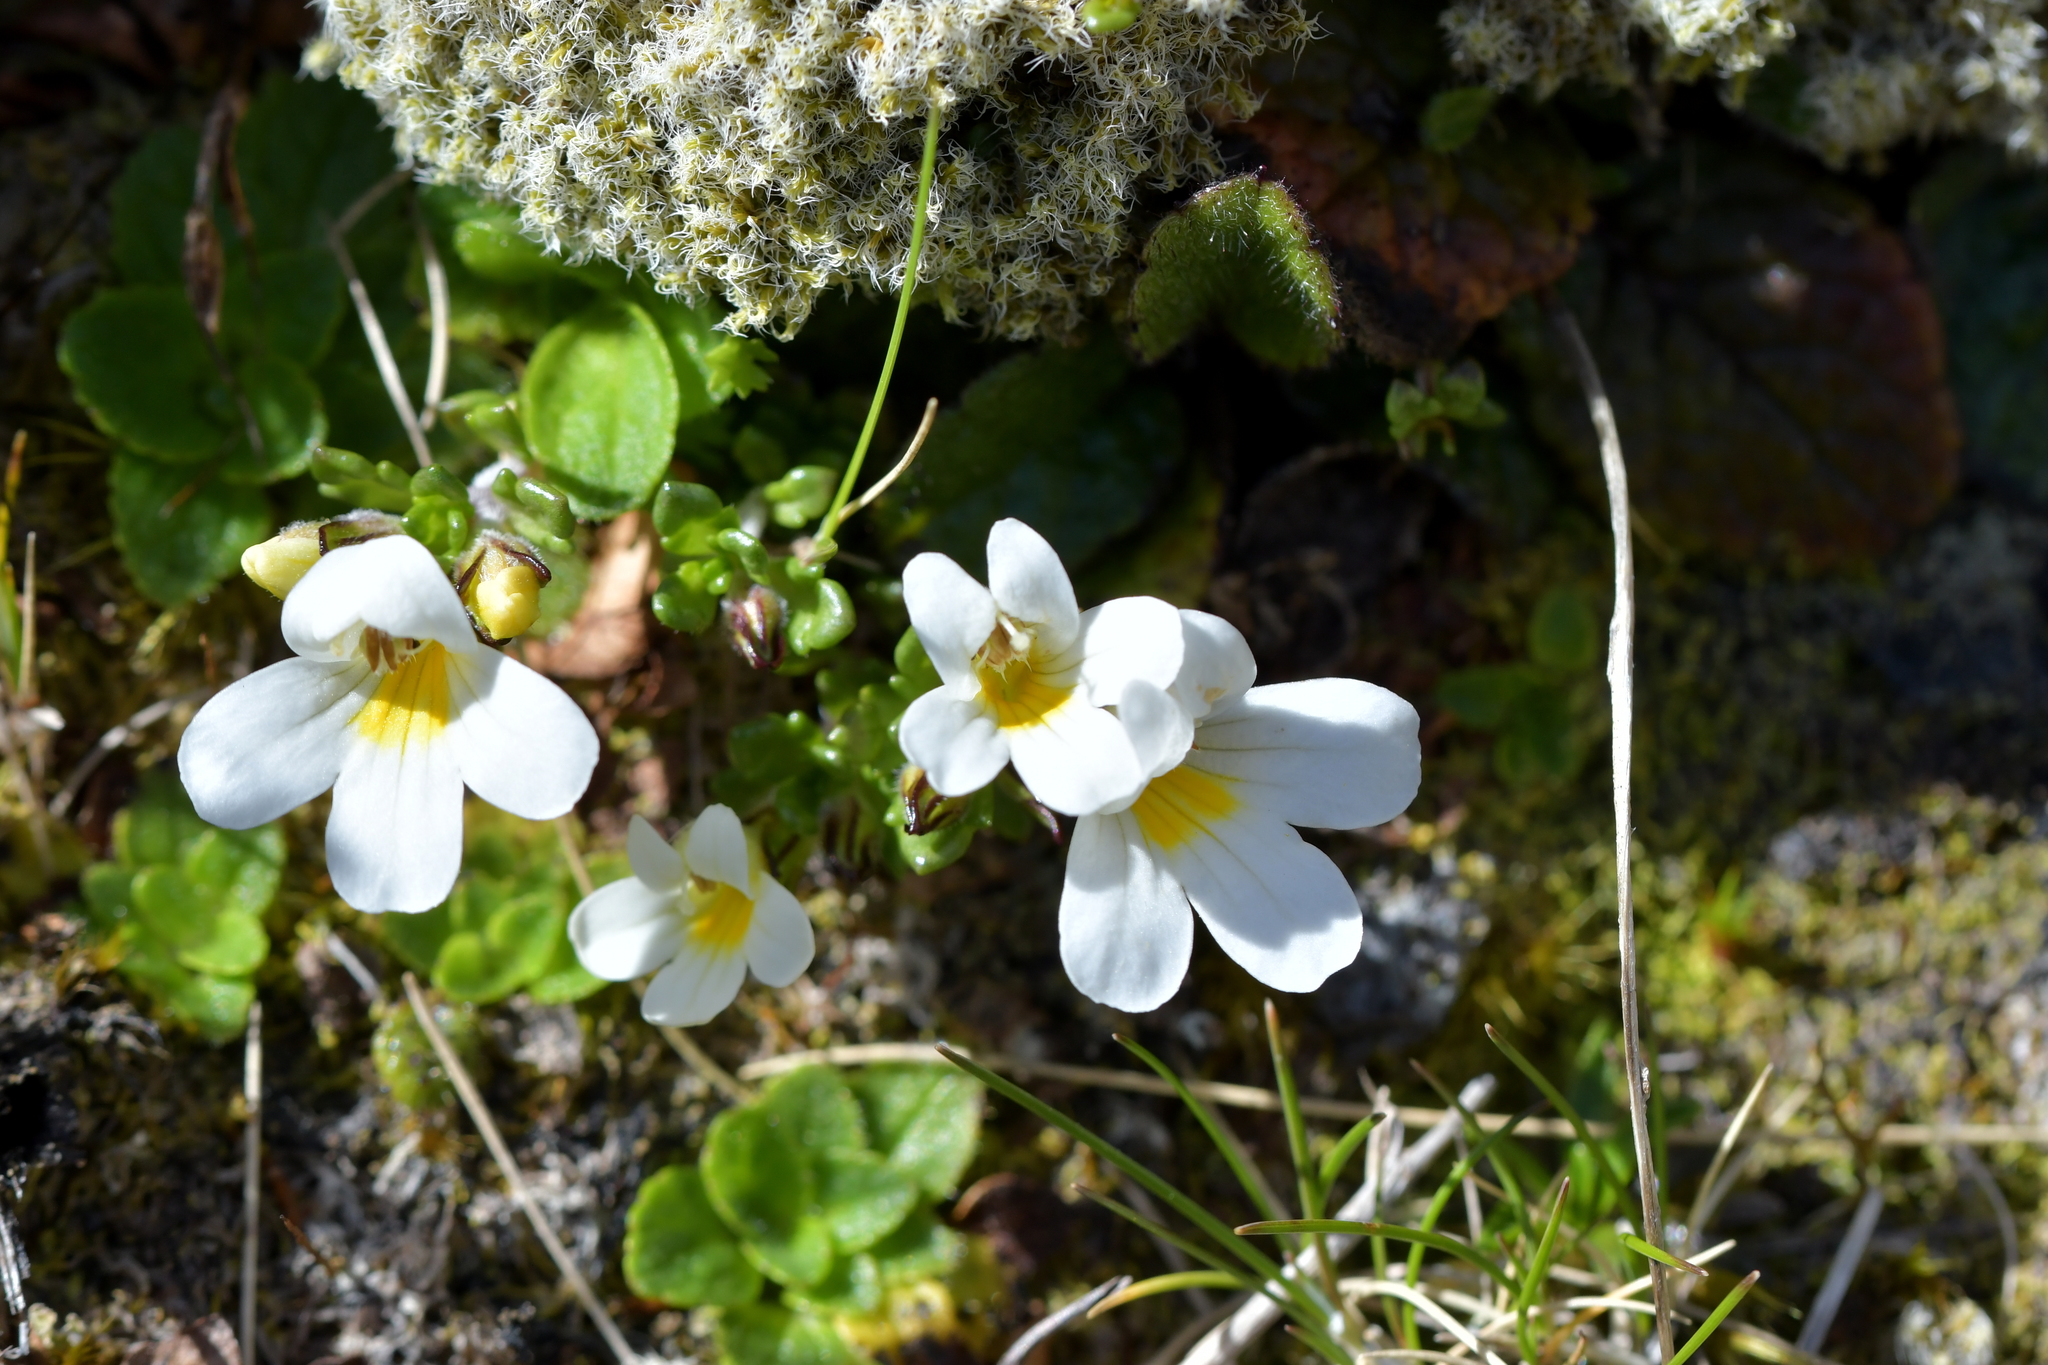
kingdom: Plantae
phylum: Tracheophyta
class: Magnoliopsida
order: Lamiales
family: Orobanchaceae
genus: Euphrasia
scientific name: Euphrasia revoluta
